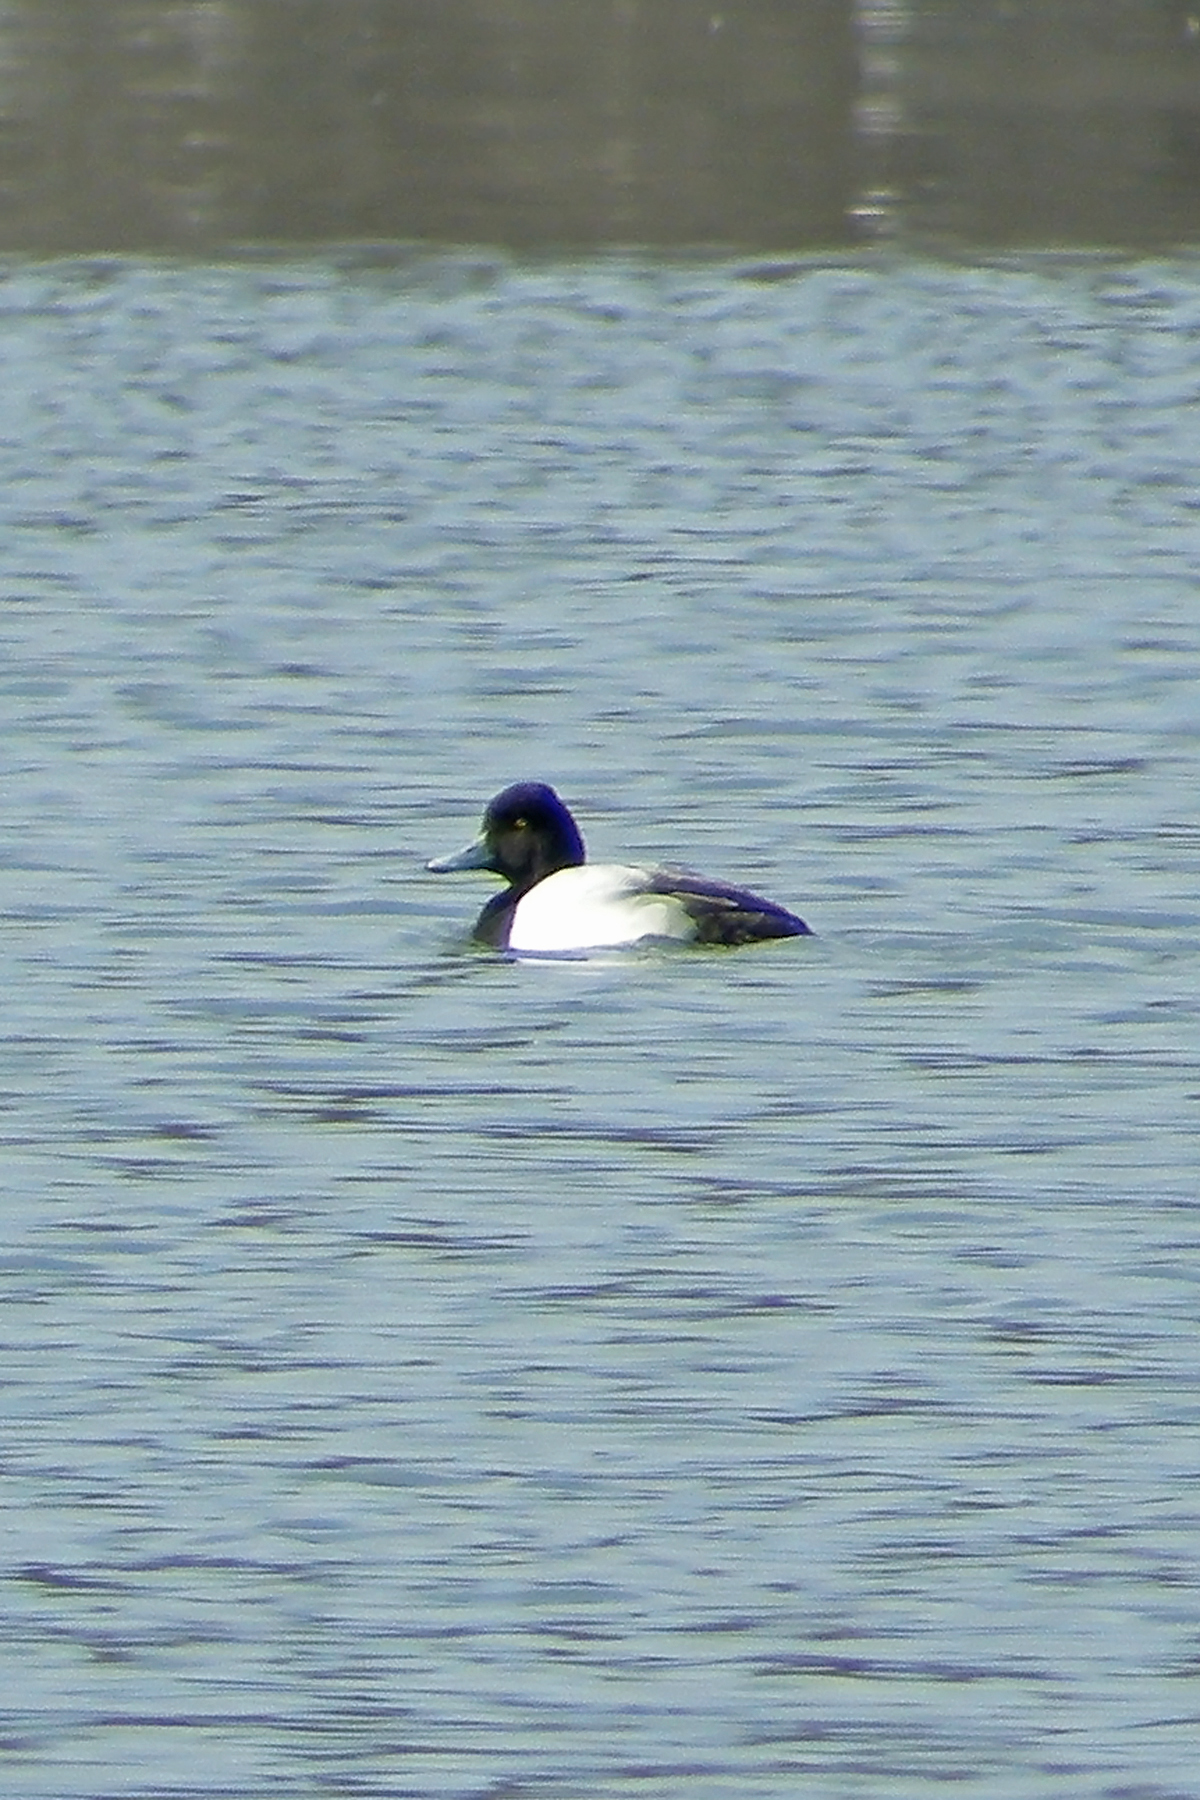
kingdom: Animalia
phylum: Chordata
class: Aves
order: Anseriformes
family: Anatidae
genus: Aythya
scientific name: Aythya affinis
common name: Lesser scaup
